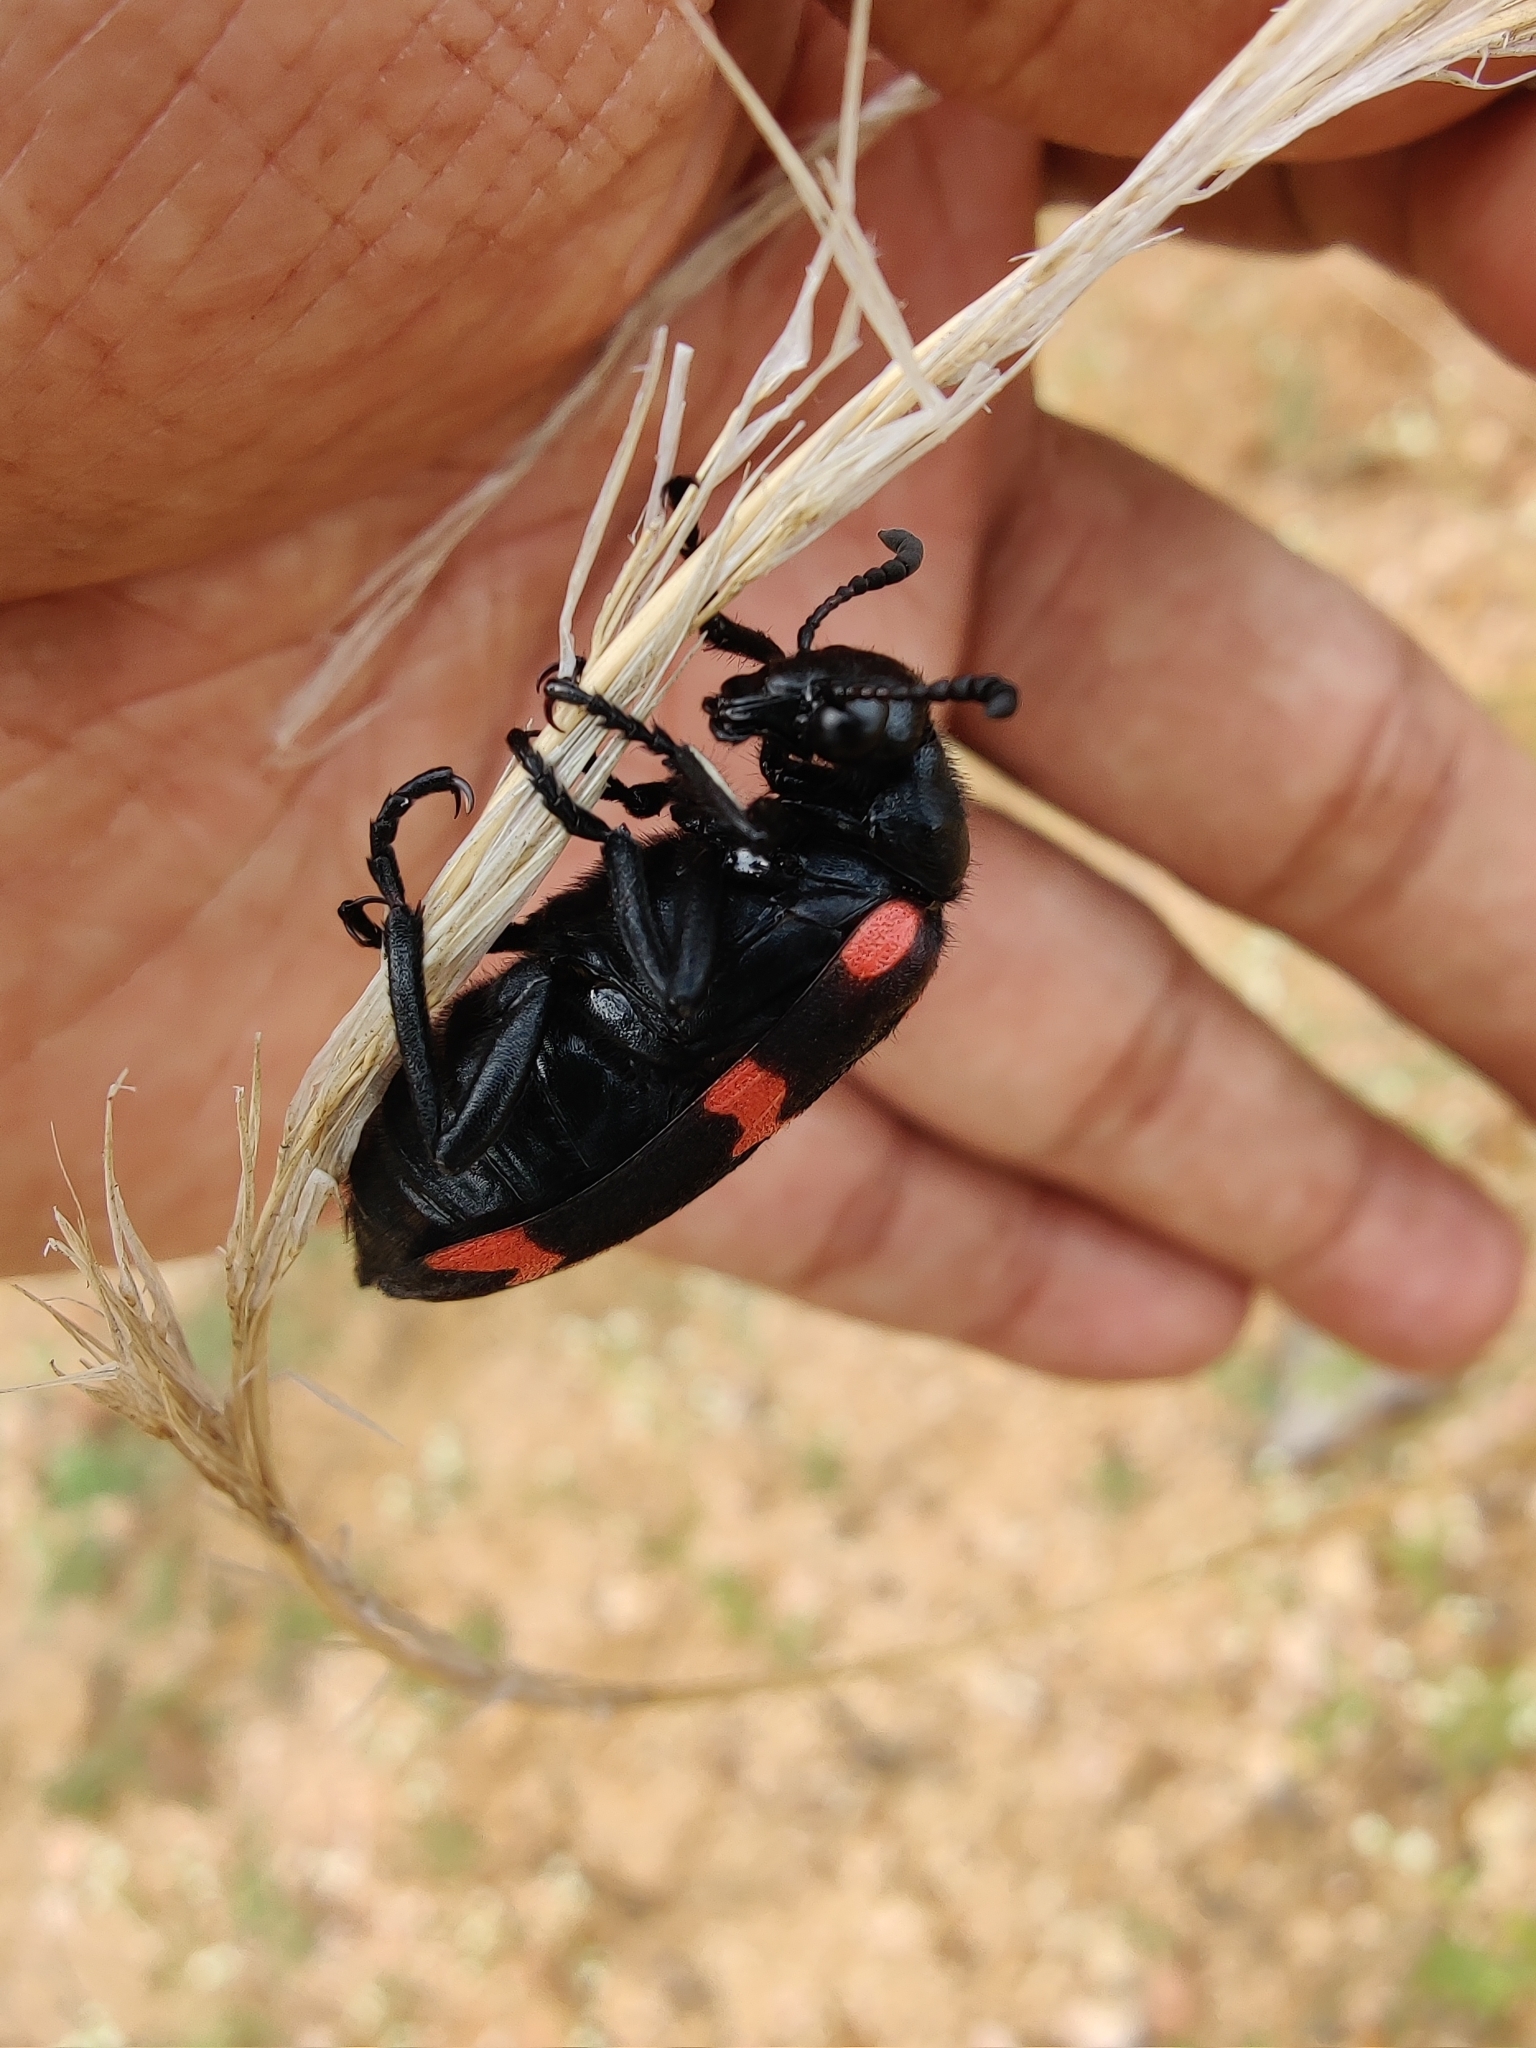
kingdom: Animalia
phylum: Arthropoda
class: Insecta
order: Coleoptera
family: Meloidae
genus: Hycleus
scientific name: Hycleus biundulatus
